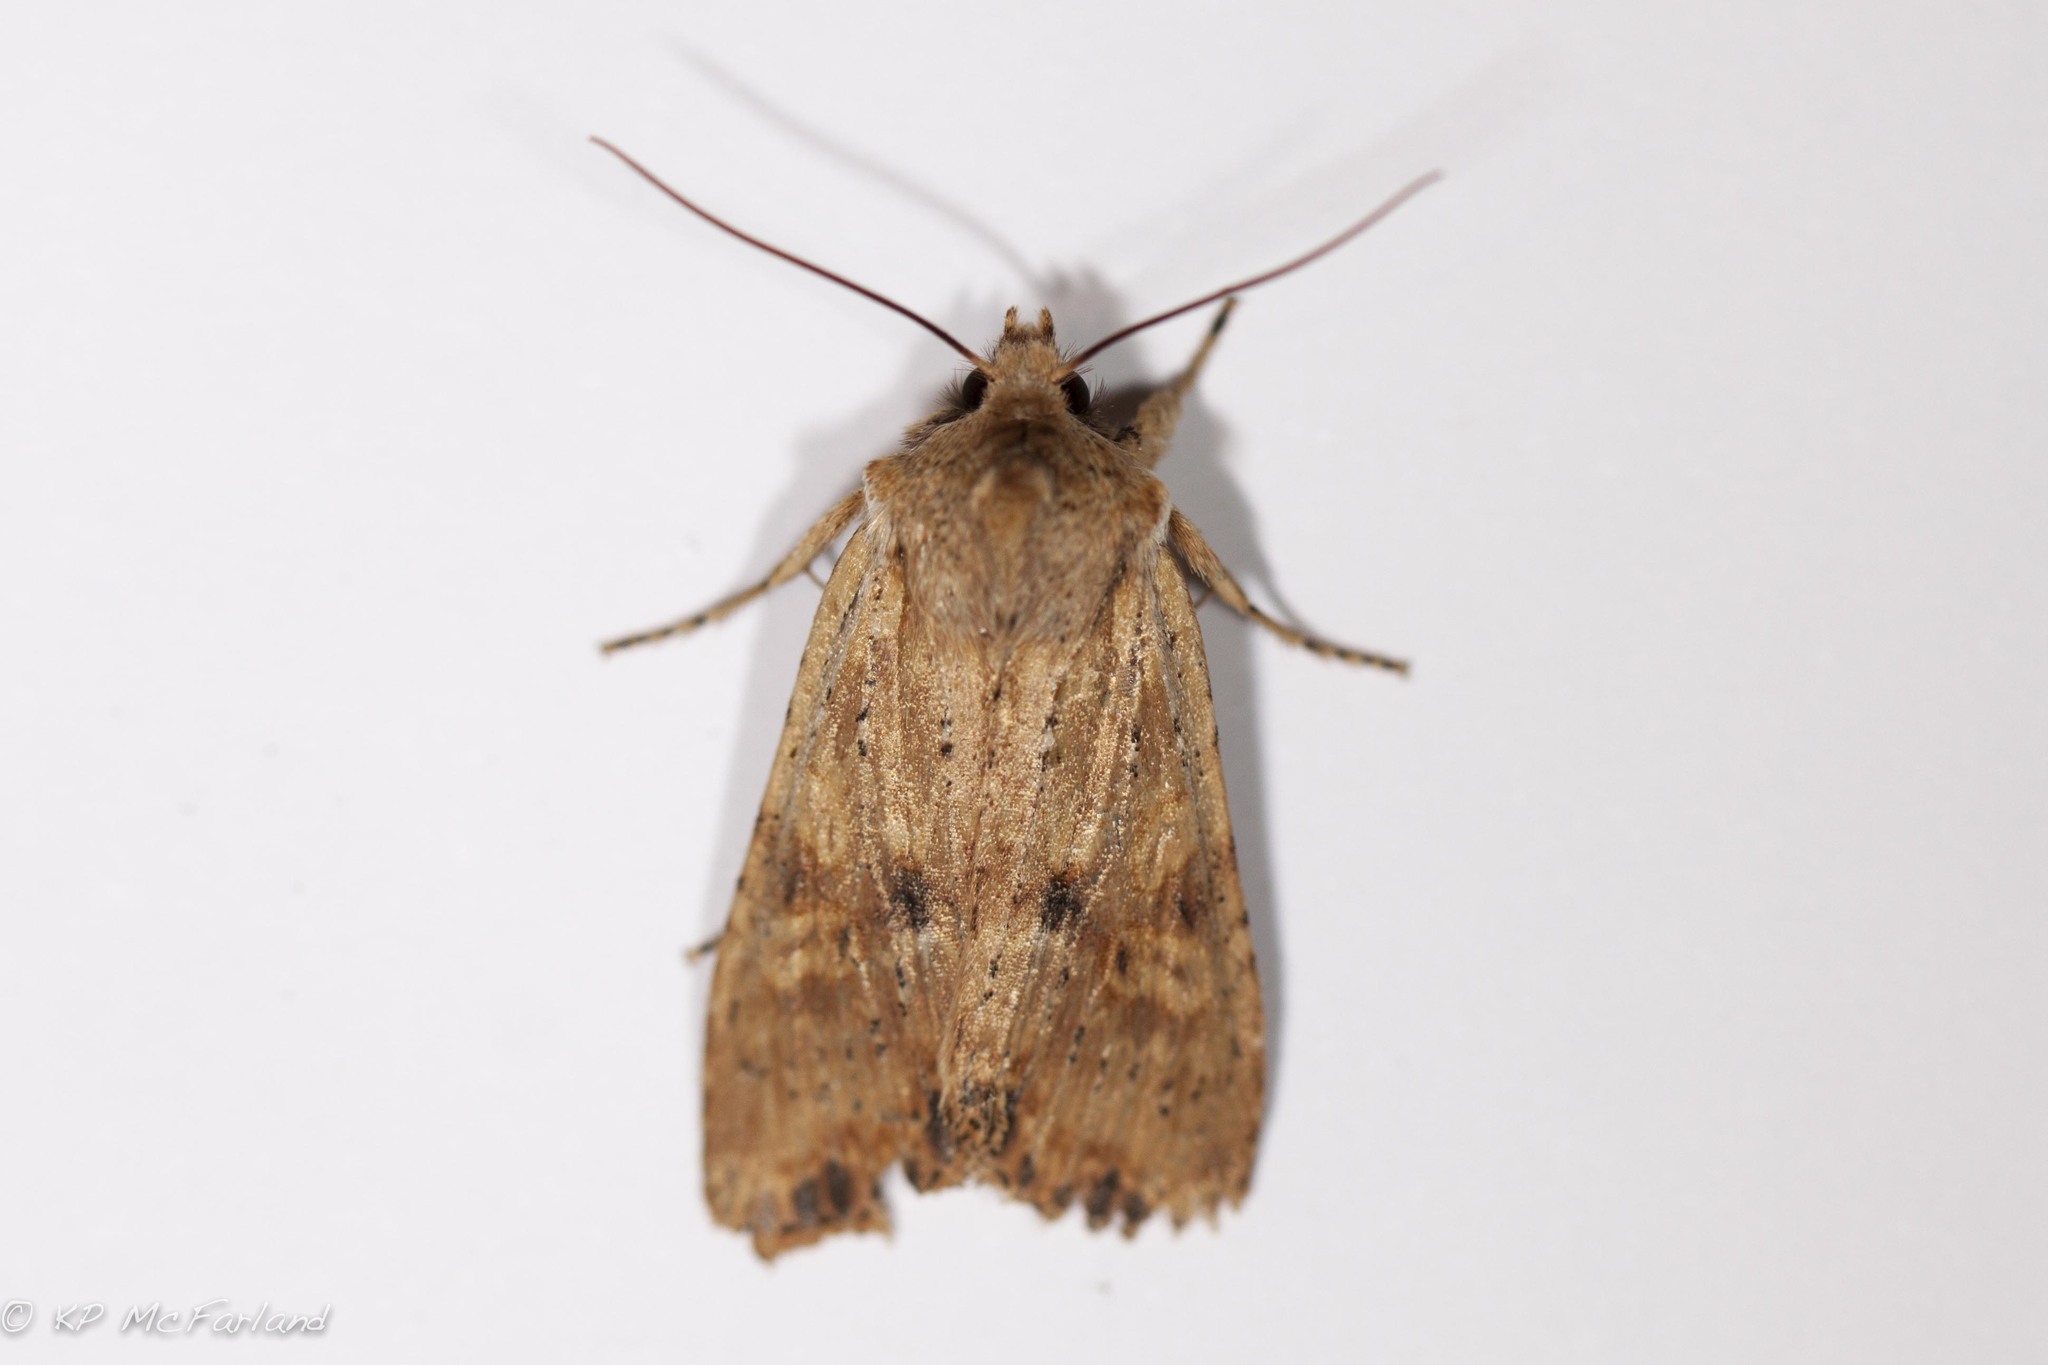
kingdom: Animalia
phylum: Arthropoda
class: Insecta
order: Lepidoptera
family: Noctuidae
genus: Lithophane
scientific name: Lithophane innominata
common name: Nameless pinion moth
